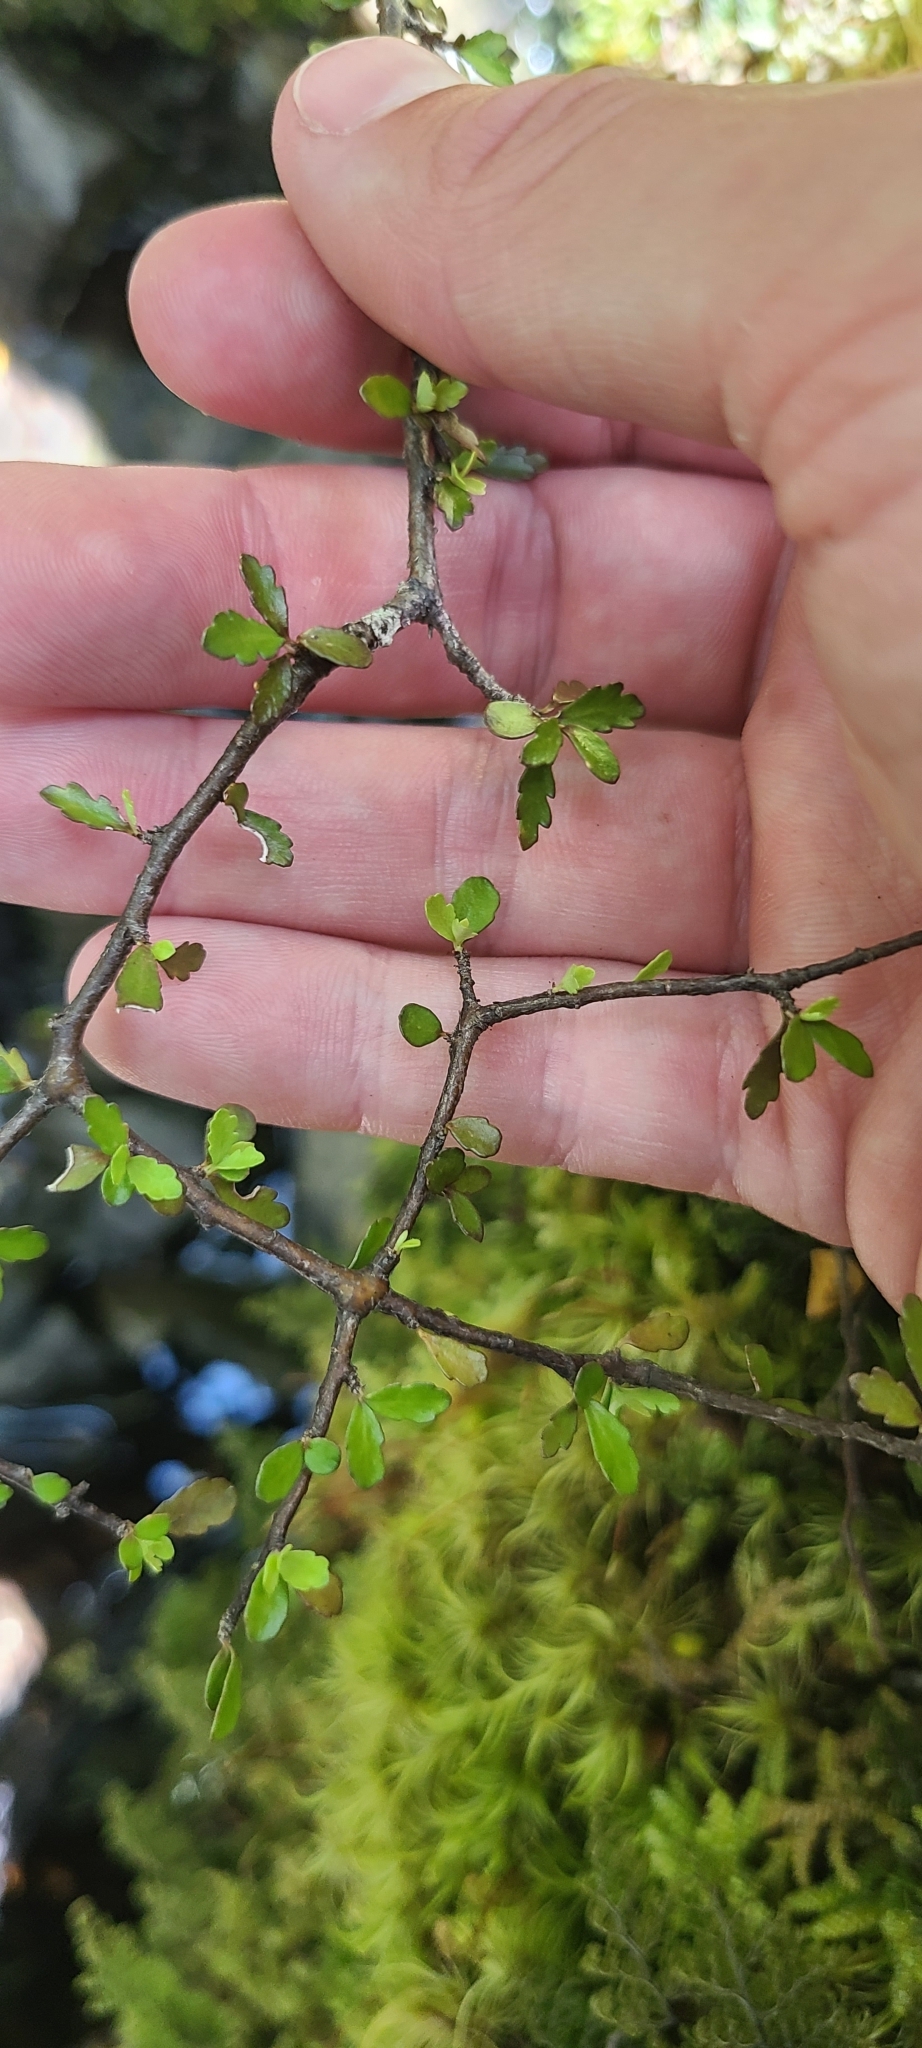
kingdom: Plantae
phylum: Tracheophyta
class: Magnoliopsida
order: Apiales
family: Pittosporaceae
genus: Pittosporum
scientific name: Pittosporum divaricatum
